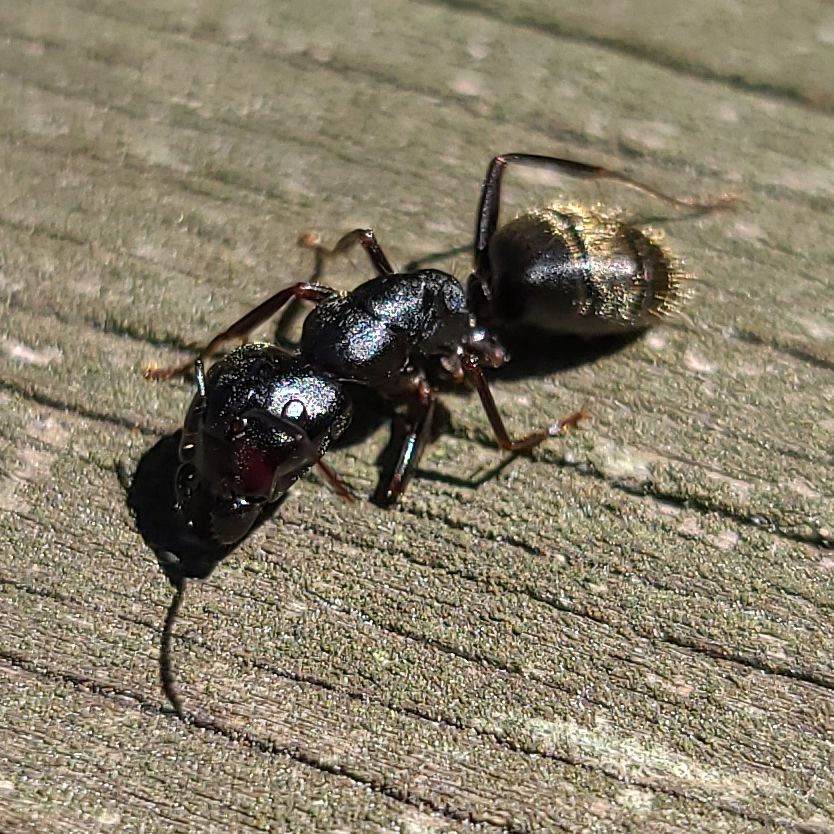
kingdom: Animalia
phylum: Arthropoda
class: Insecta
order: Hymenoptera
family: Formicidae
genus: Camponotus
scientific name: Camponotus pennsylvanicus
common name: Black carpenter ant
